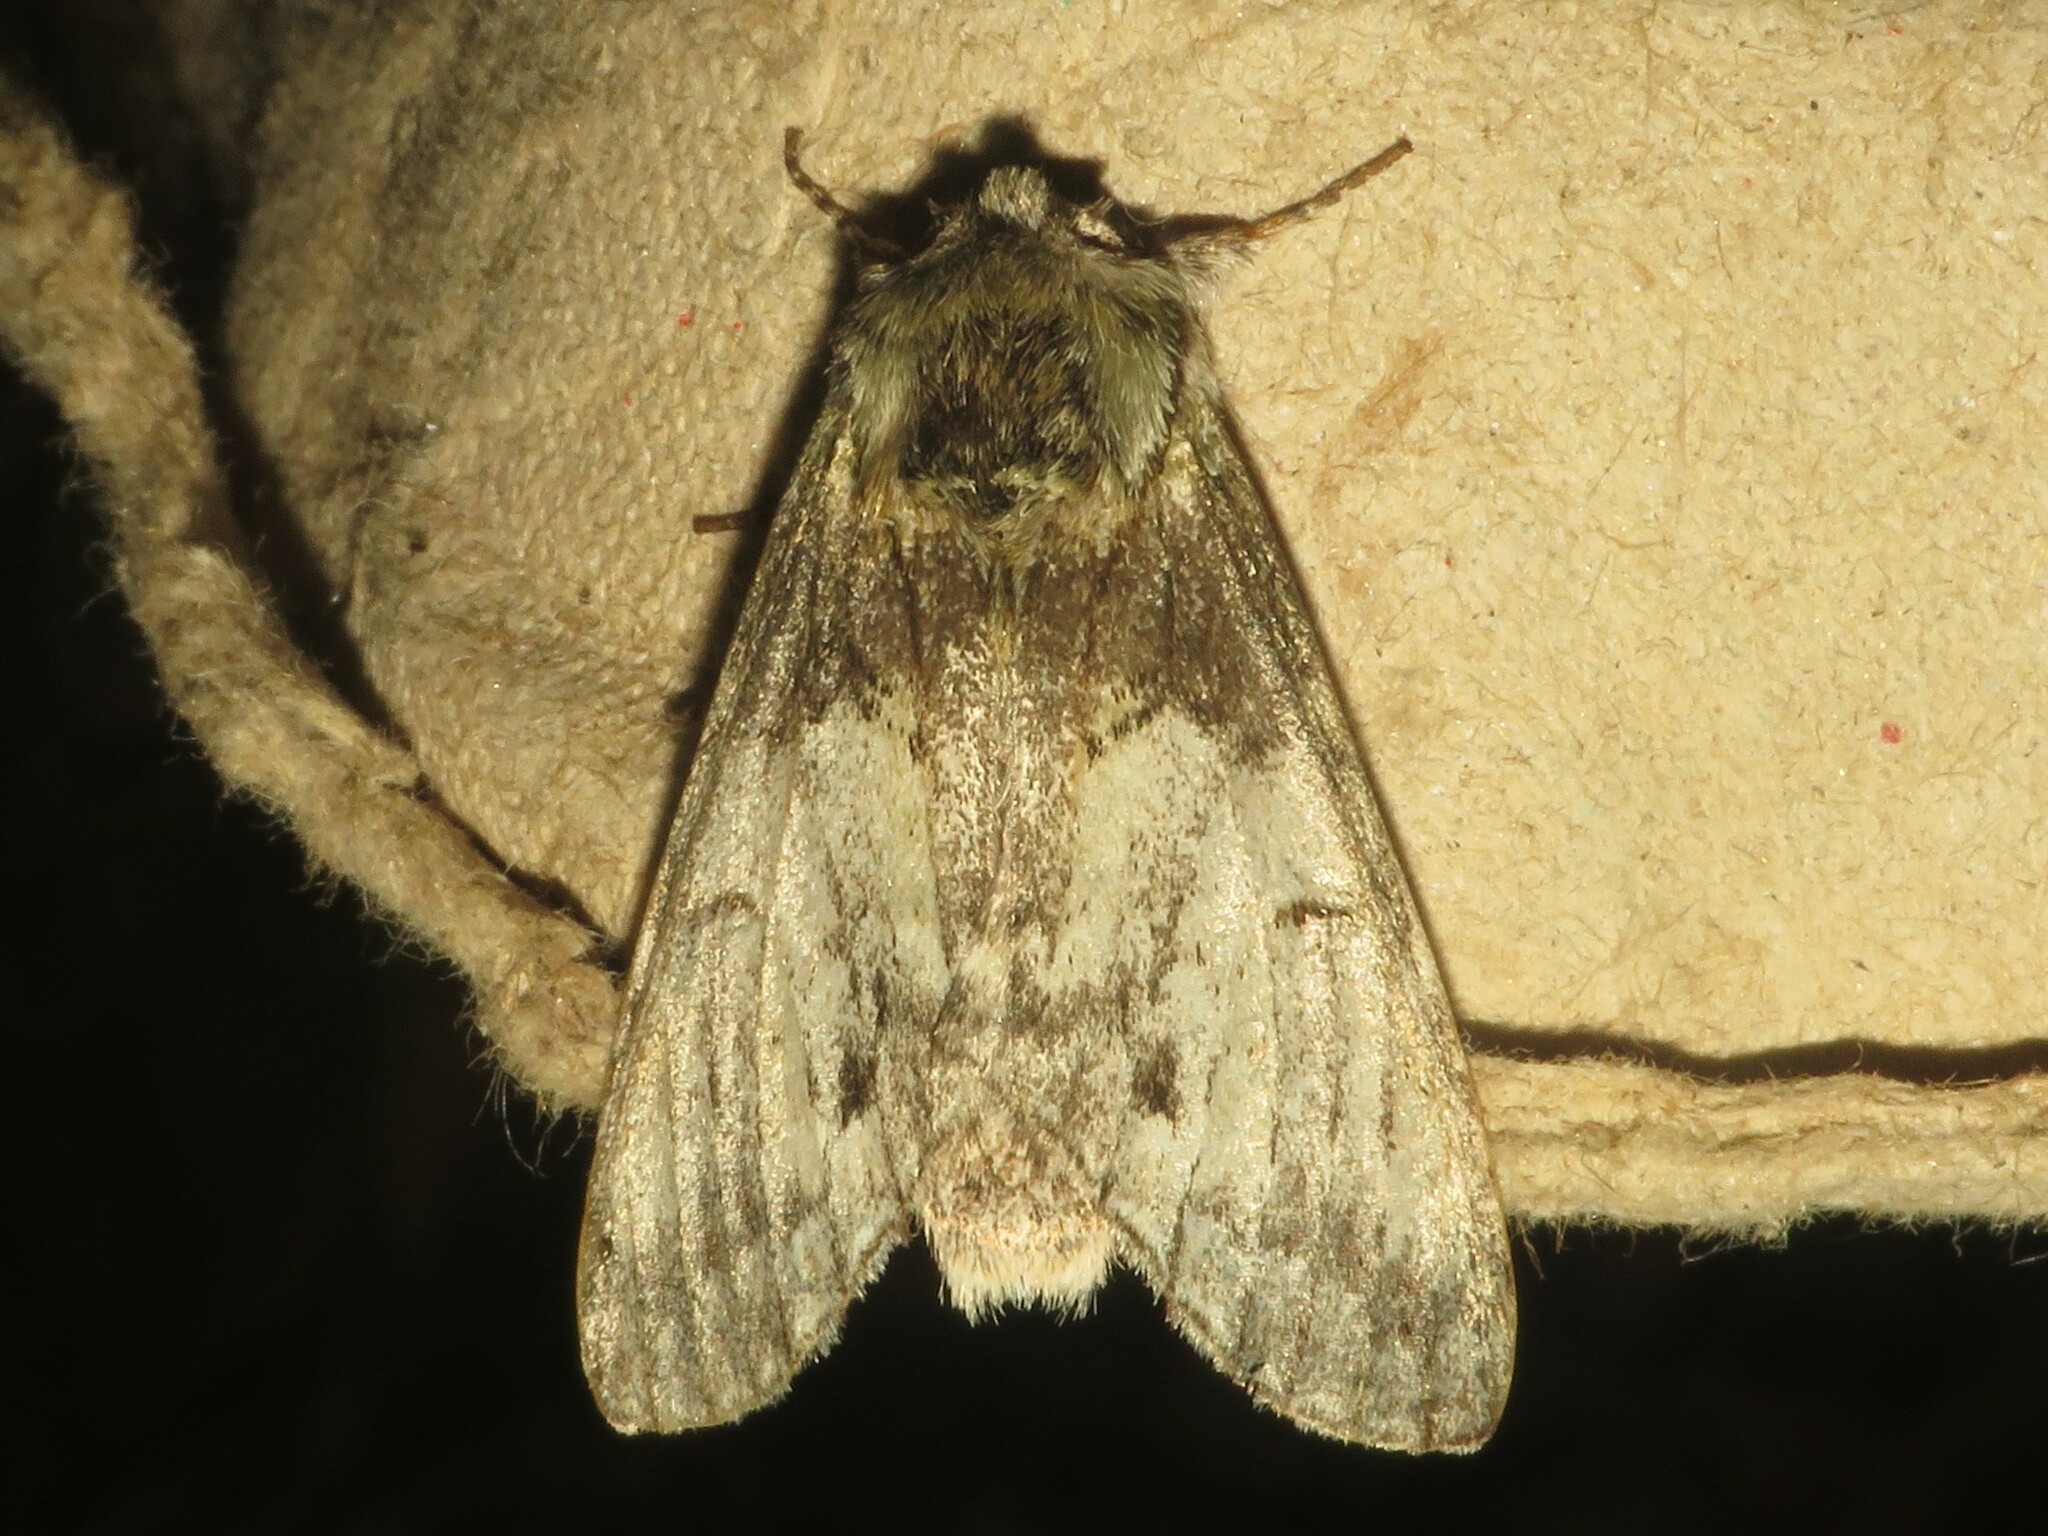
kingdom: Animalia
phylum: Arthropoda
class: Insecta
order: Lepidoptera
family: Notodontidae
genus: Macrurocampa
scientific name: Macrurocampa marthesia
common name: Mottled prominent
